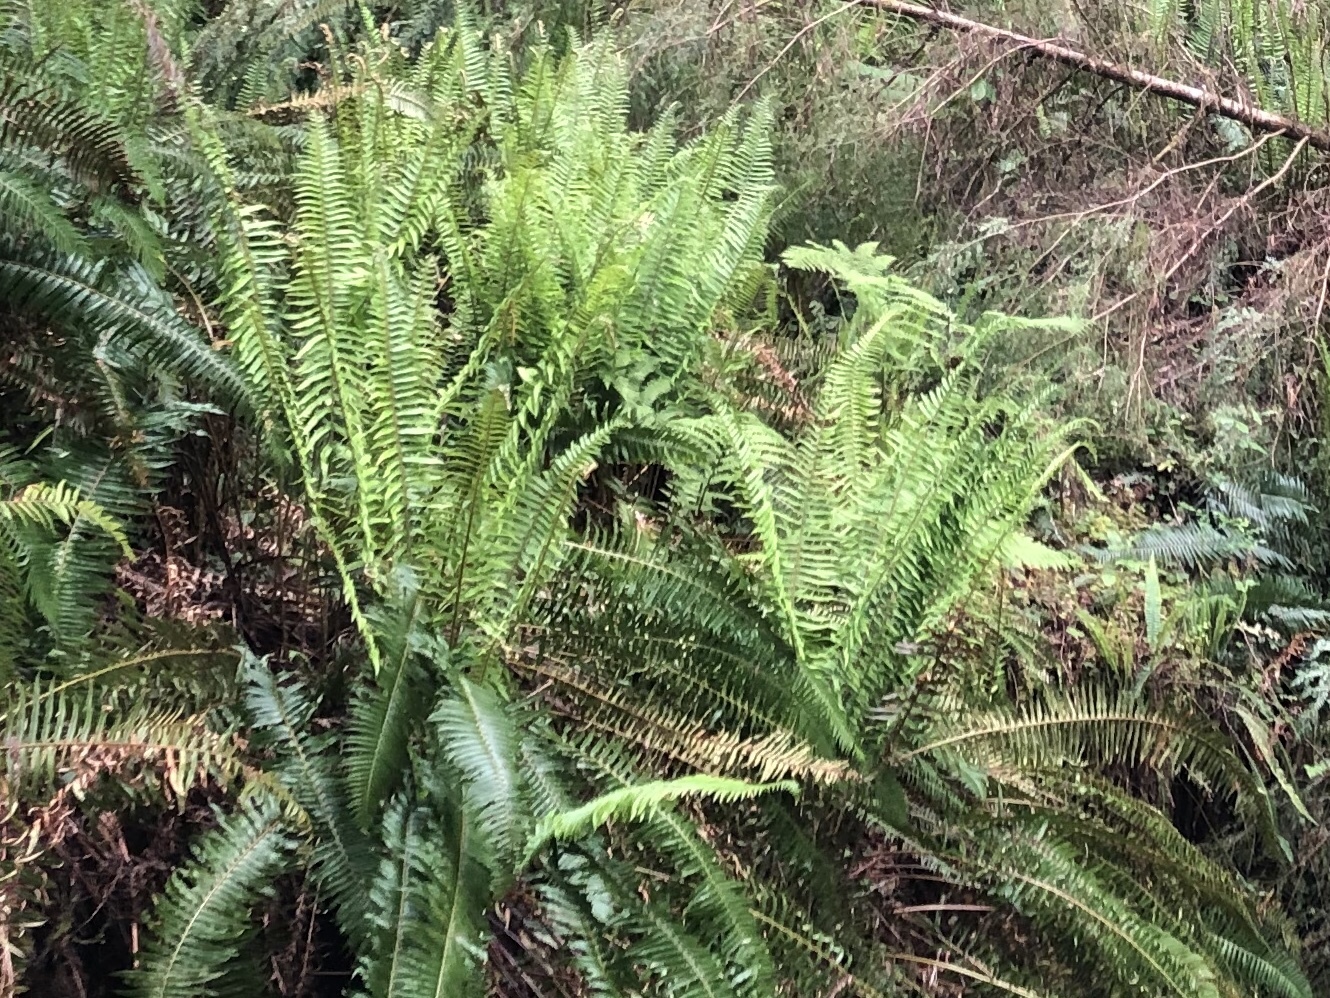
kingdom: Plantae
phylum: Tracheophyta
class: Polypodiopsida
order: Polypodiales
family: Blechnaceae
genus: Struthiopteris
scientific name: Struthiopteris spicant
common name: Deer fern
